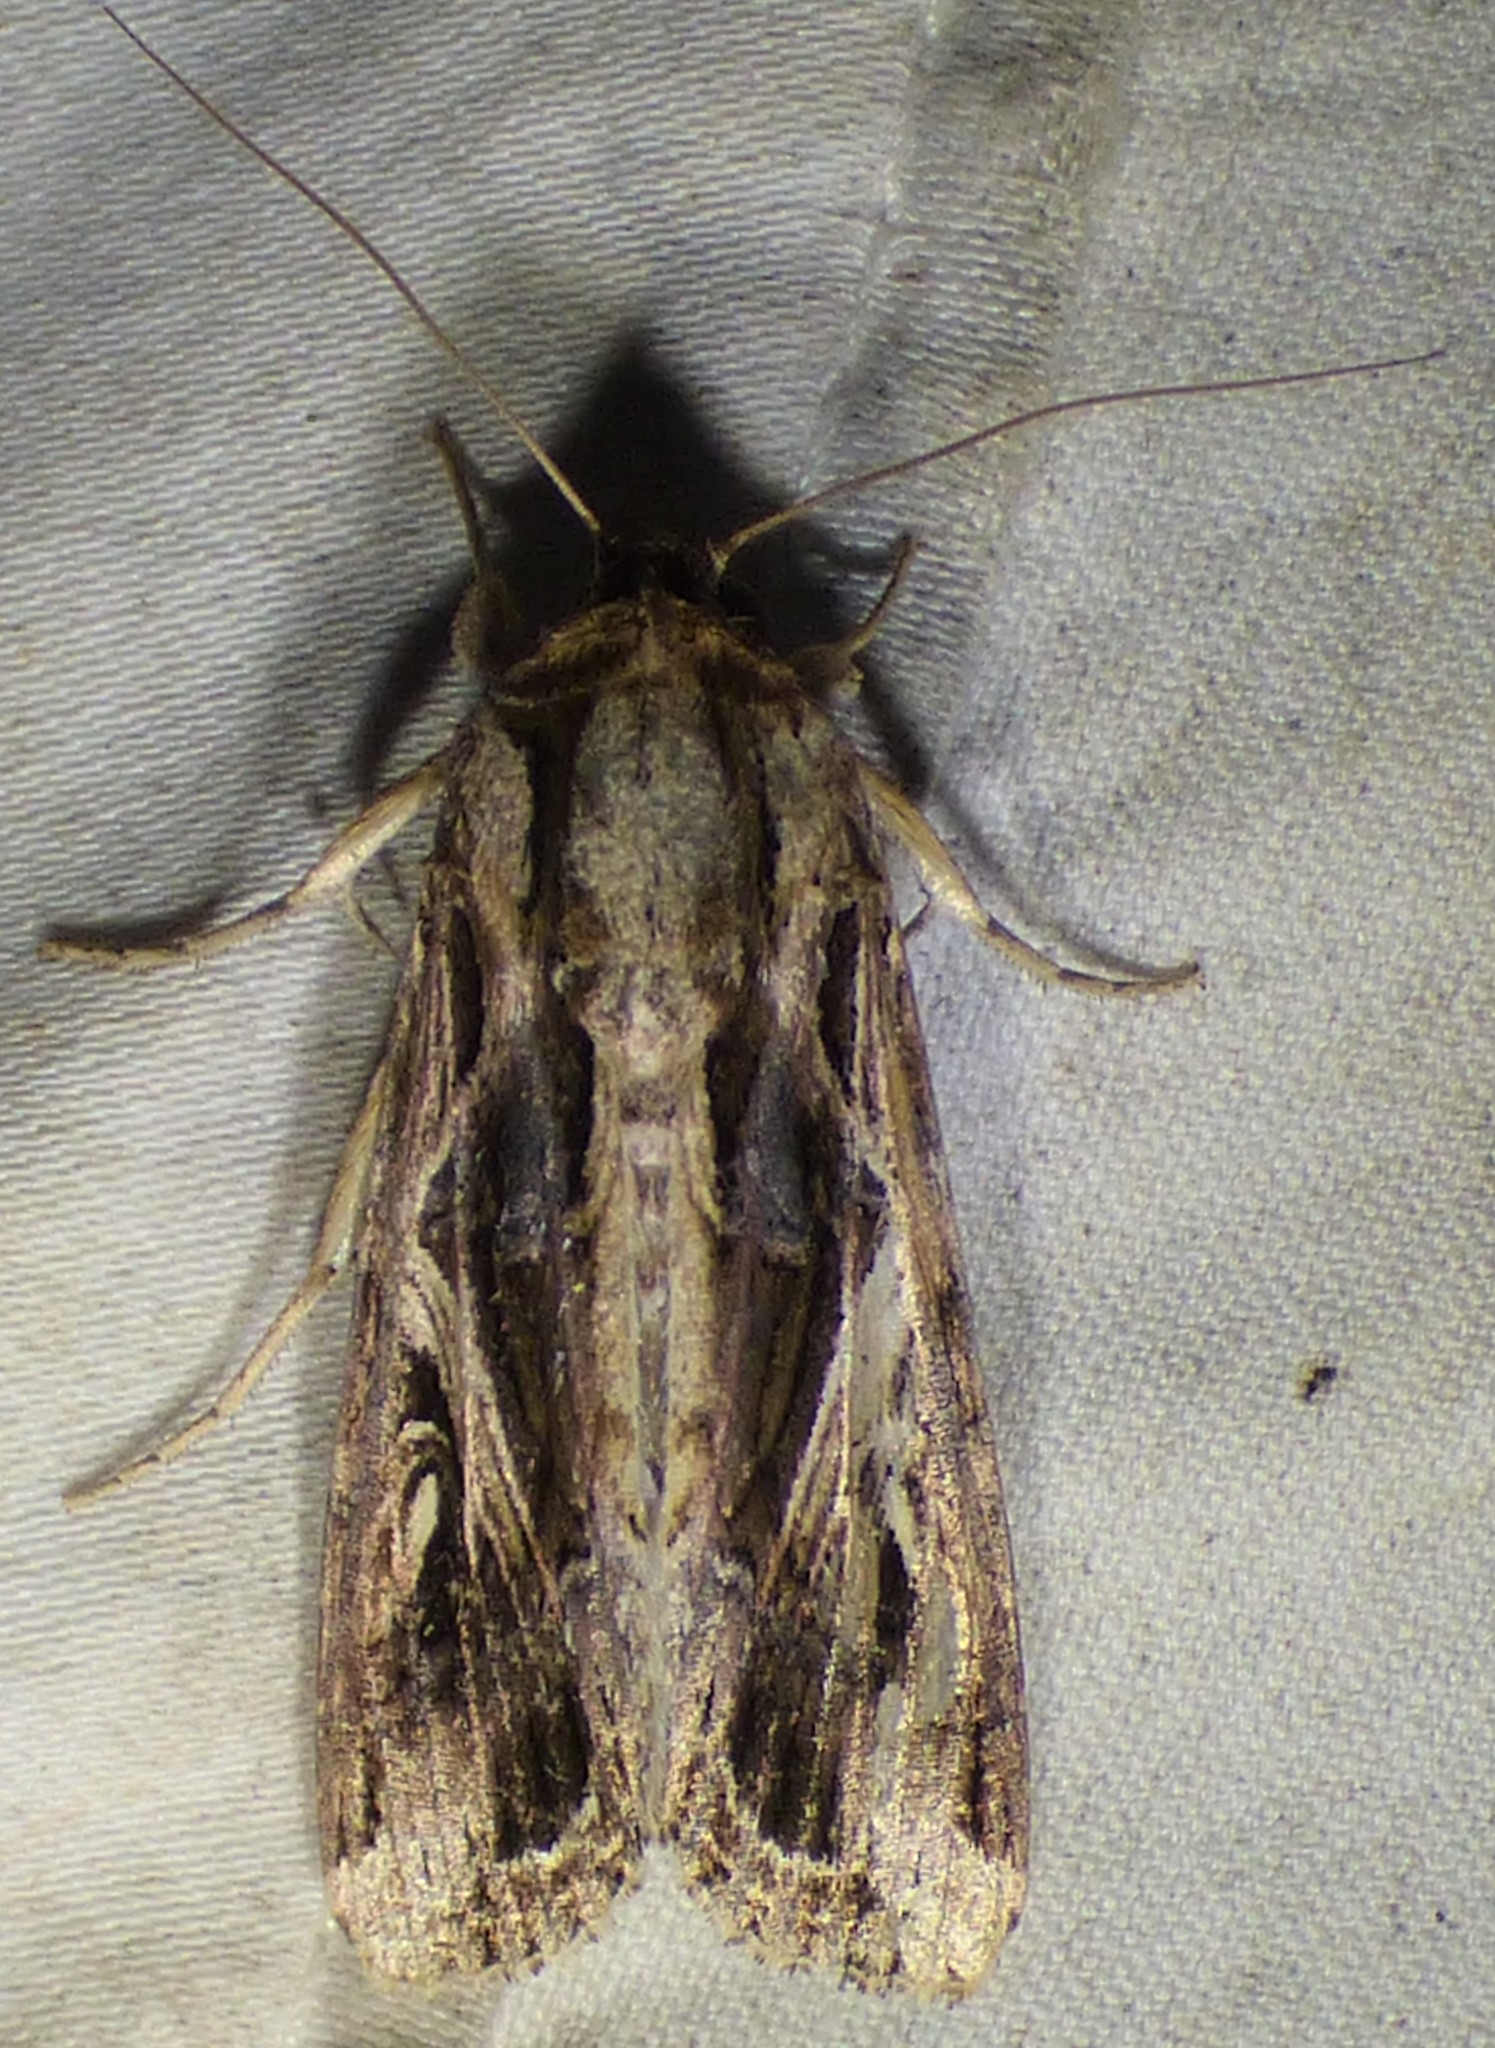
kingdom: Animalia
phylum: Arthropoda
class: Insecta
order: Lepidoptera
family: Noctuidae
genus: Spodoptera
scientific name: Spodoptera dolichos
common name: Sweetpotato armyworm
